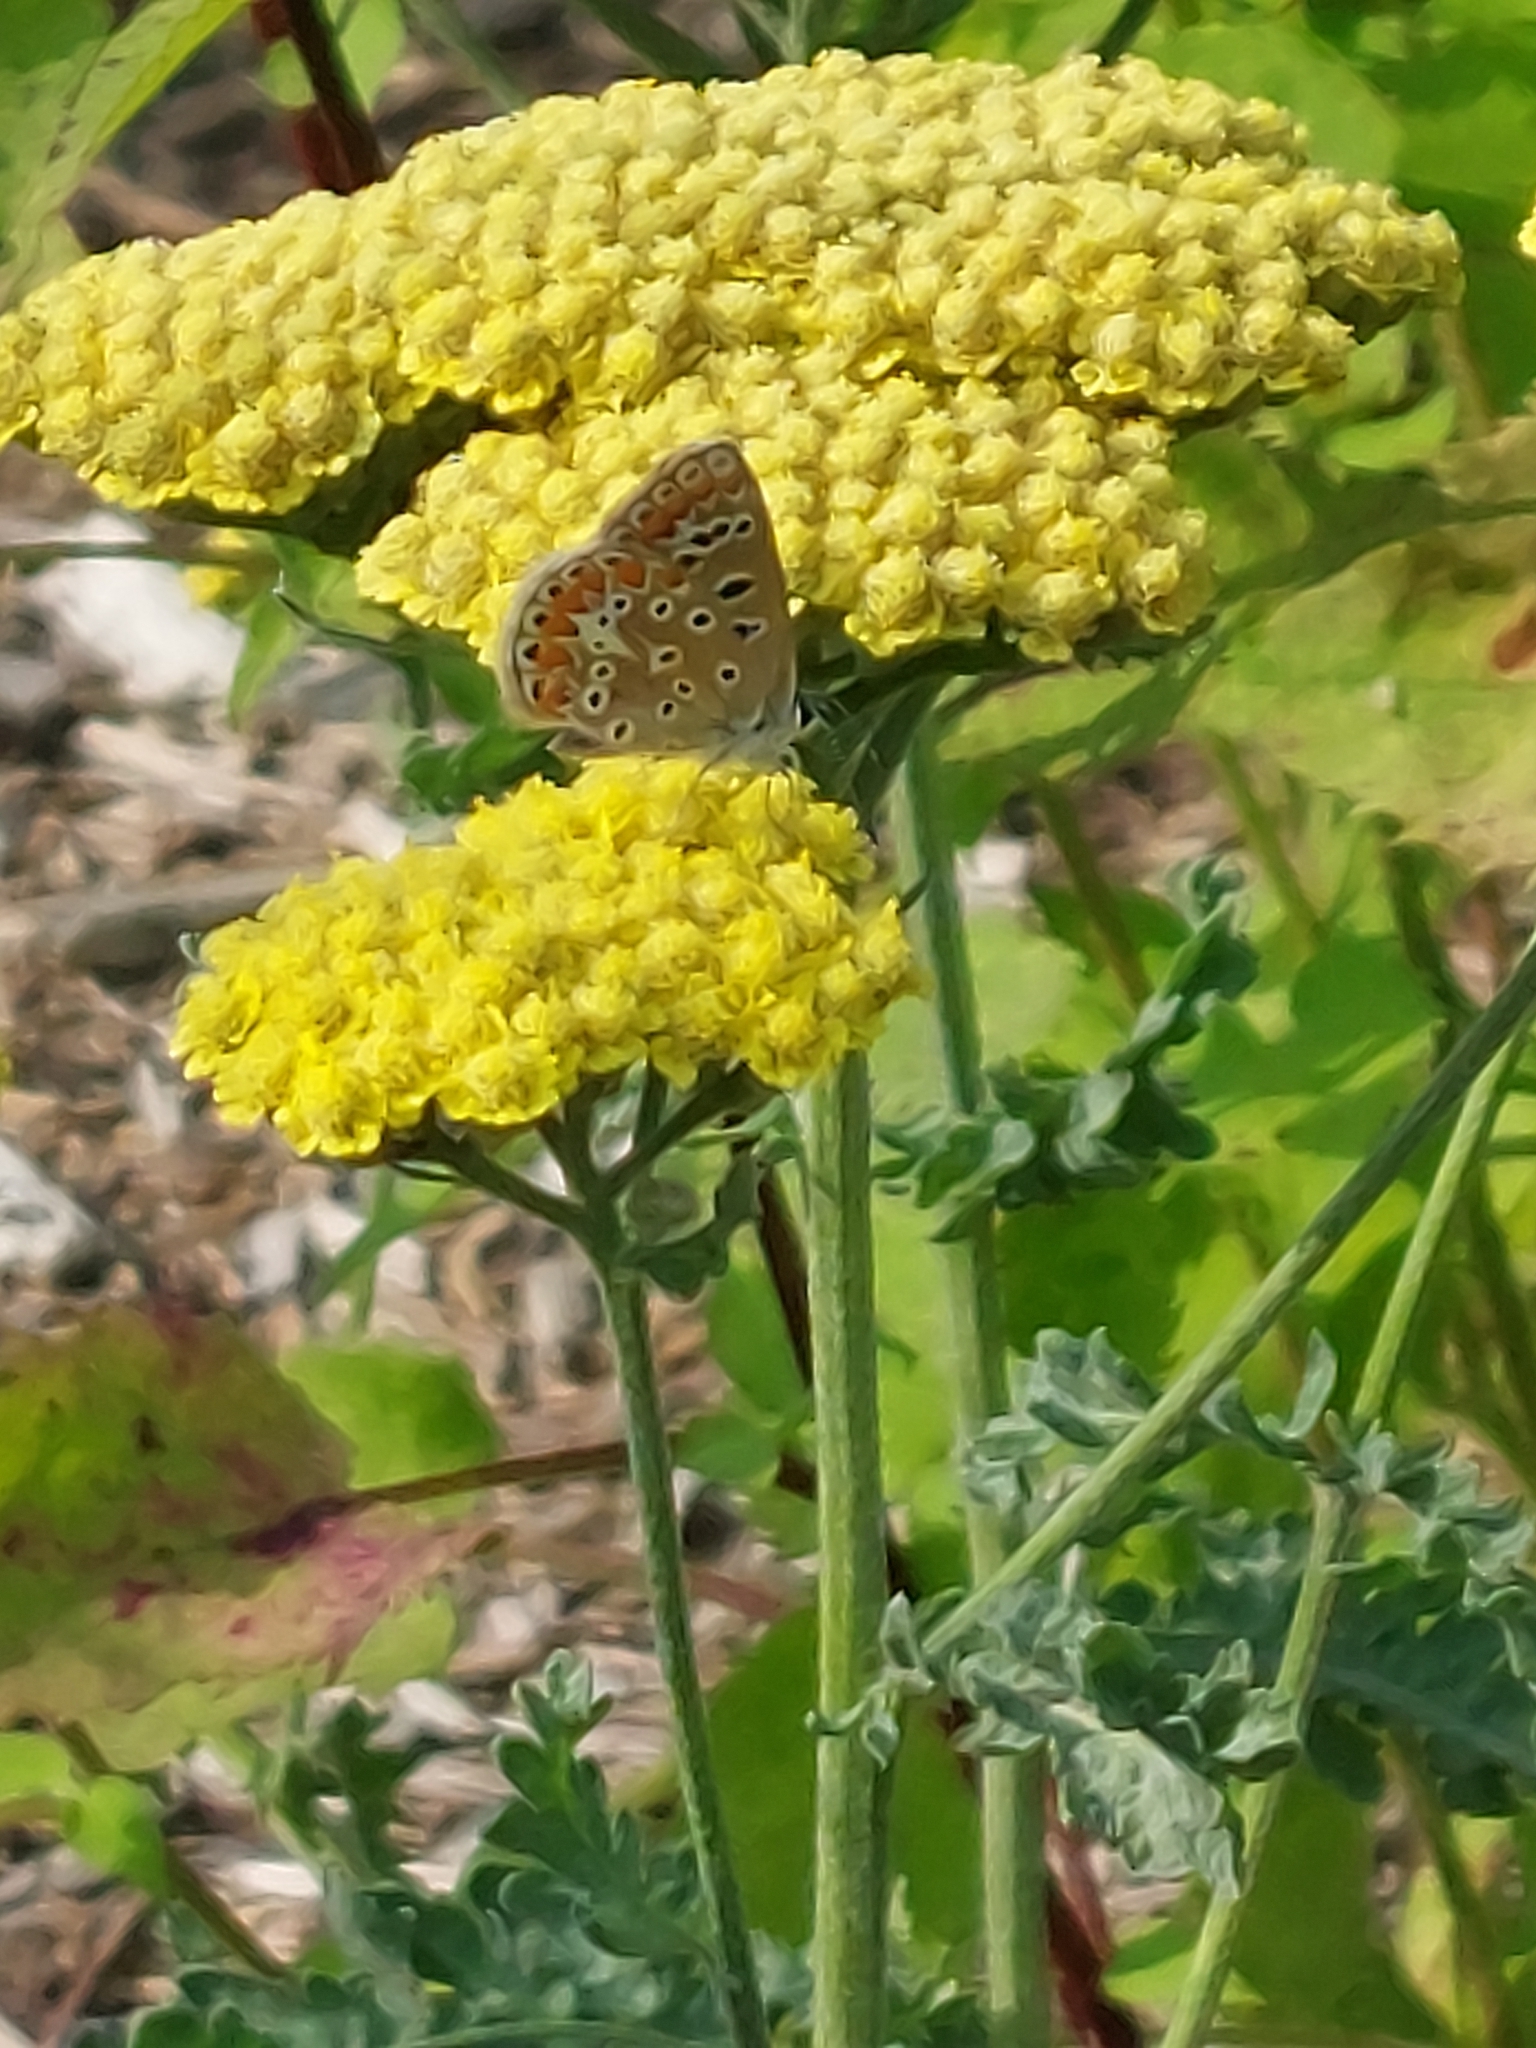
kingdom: Animalia
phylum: Arthropoda
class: Insecta
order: Lepidoptera
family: Lycaenidae
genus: Polyommatus
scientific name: Polyommatus icarus
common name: Common blue
